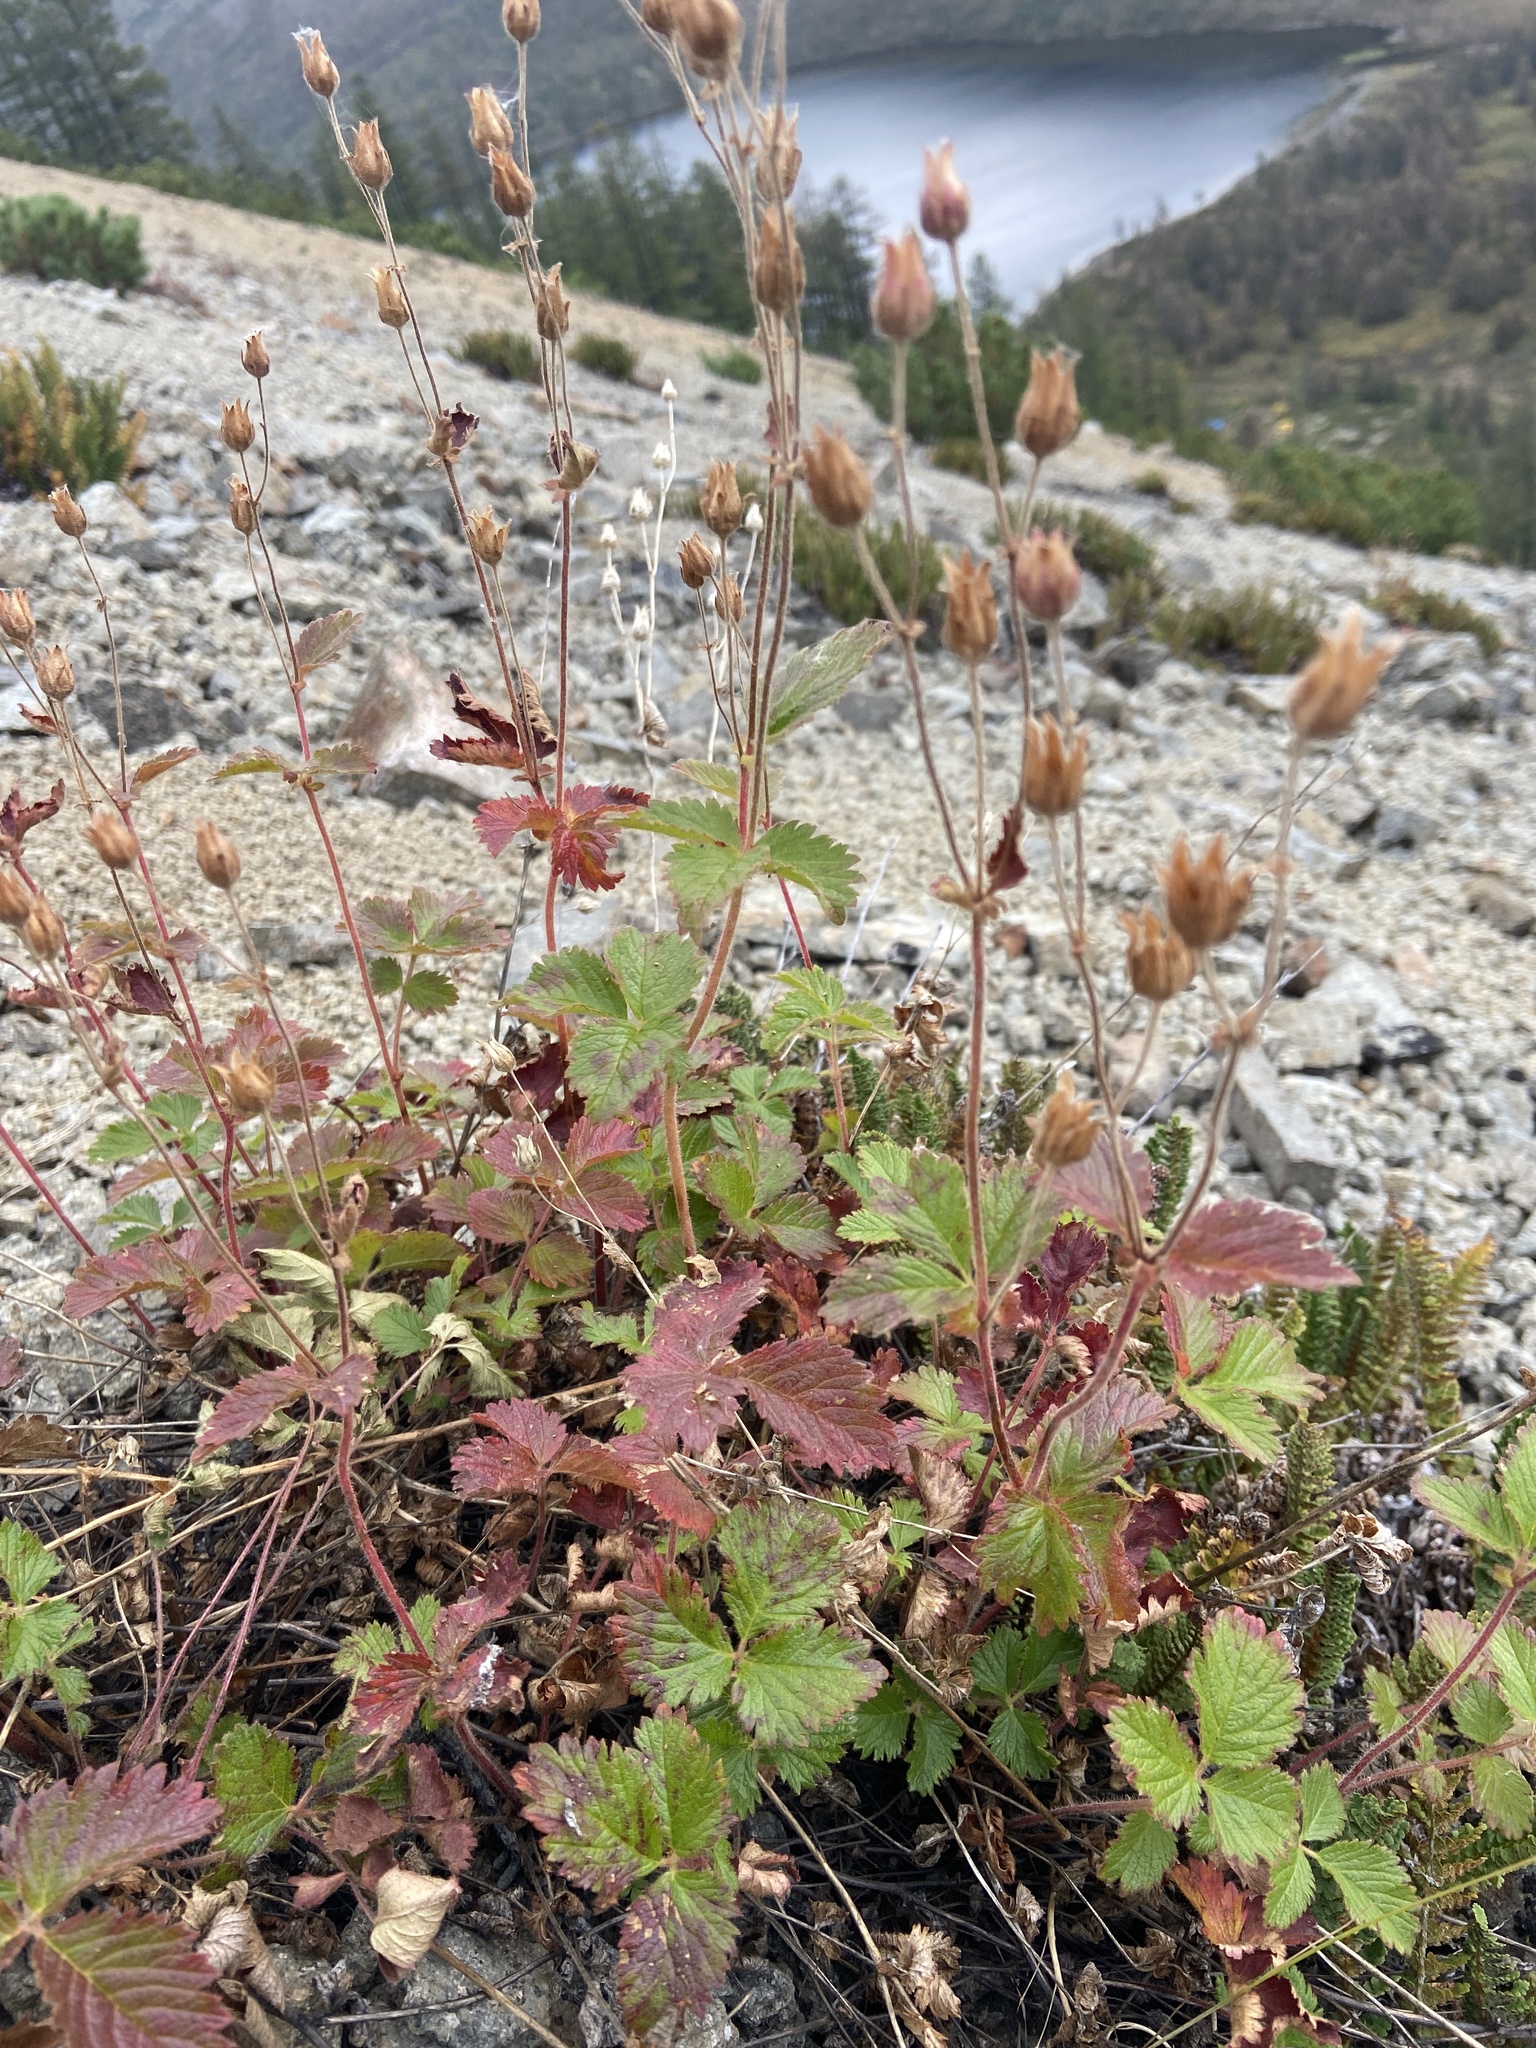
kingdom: Plantae
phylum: Tracheophyta
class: Magnoliopsida
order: Rosales
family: Rosaceae
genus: Drymocallis
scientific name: Drymocallis inquinans
